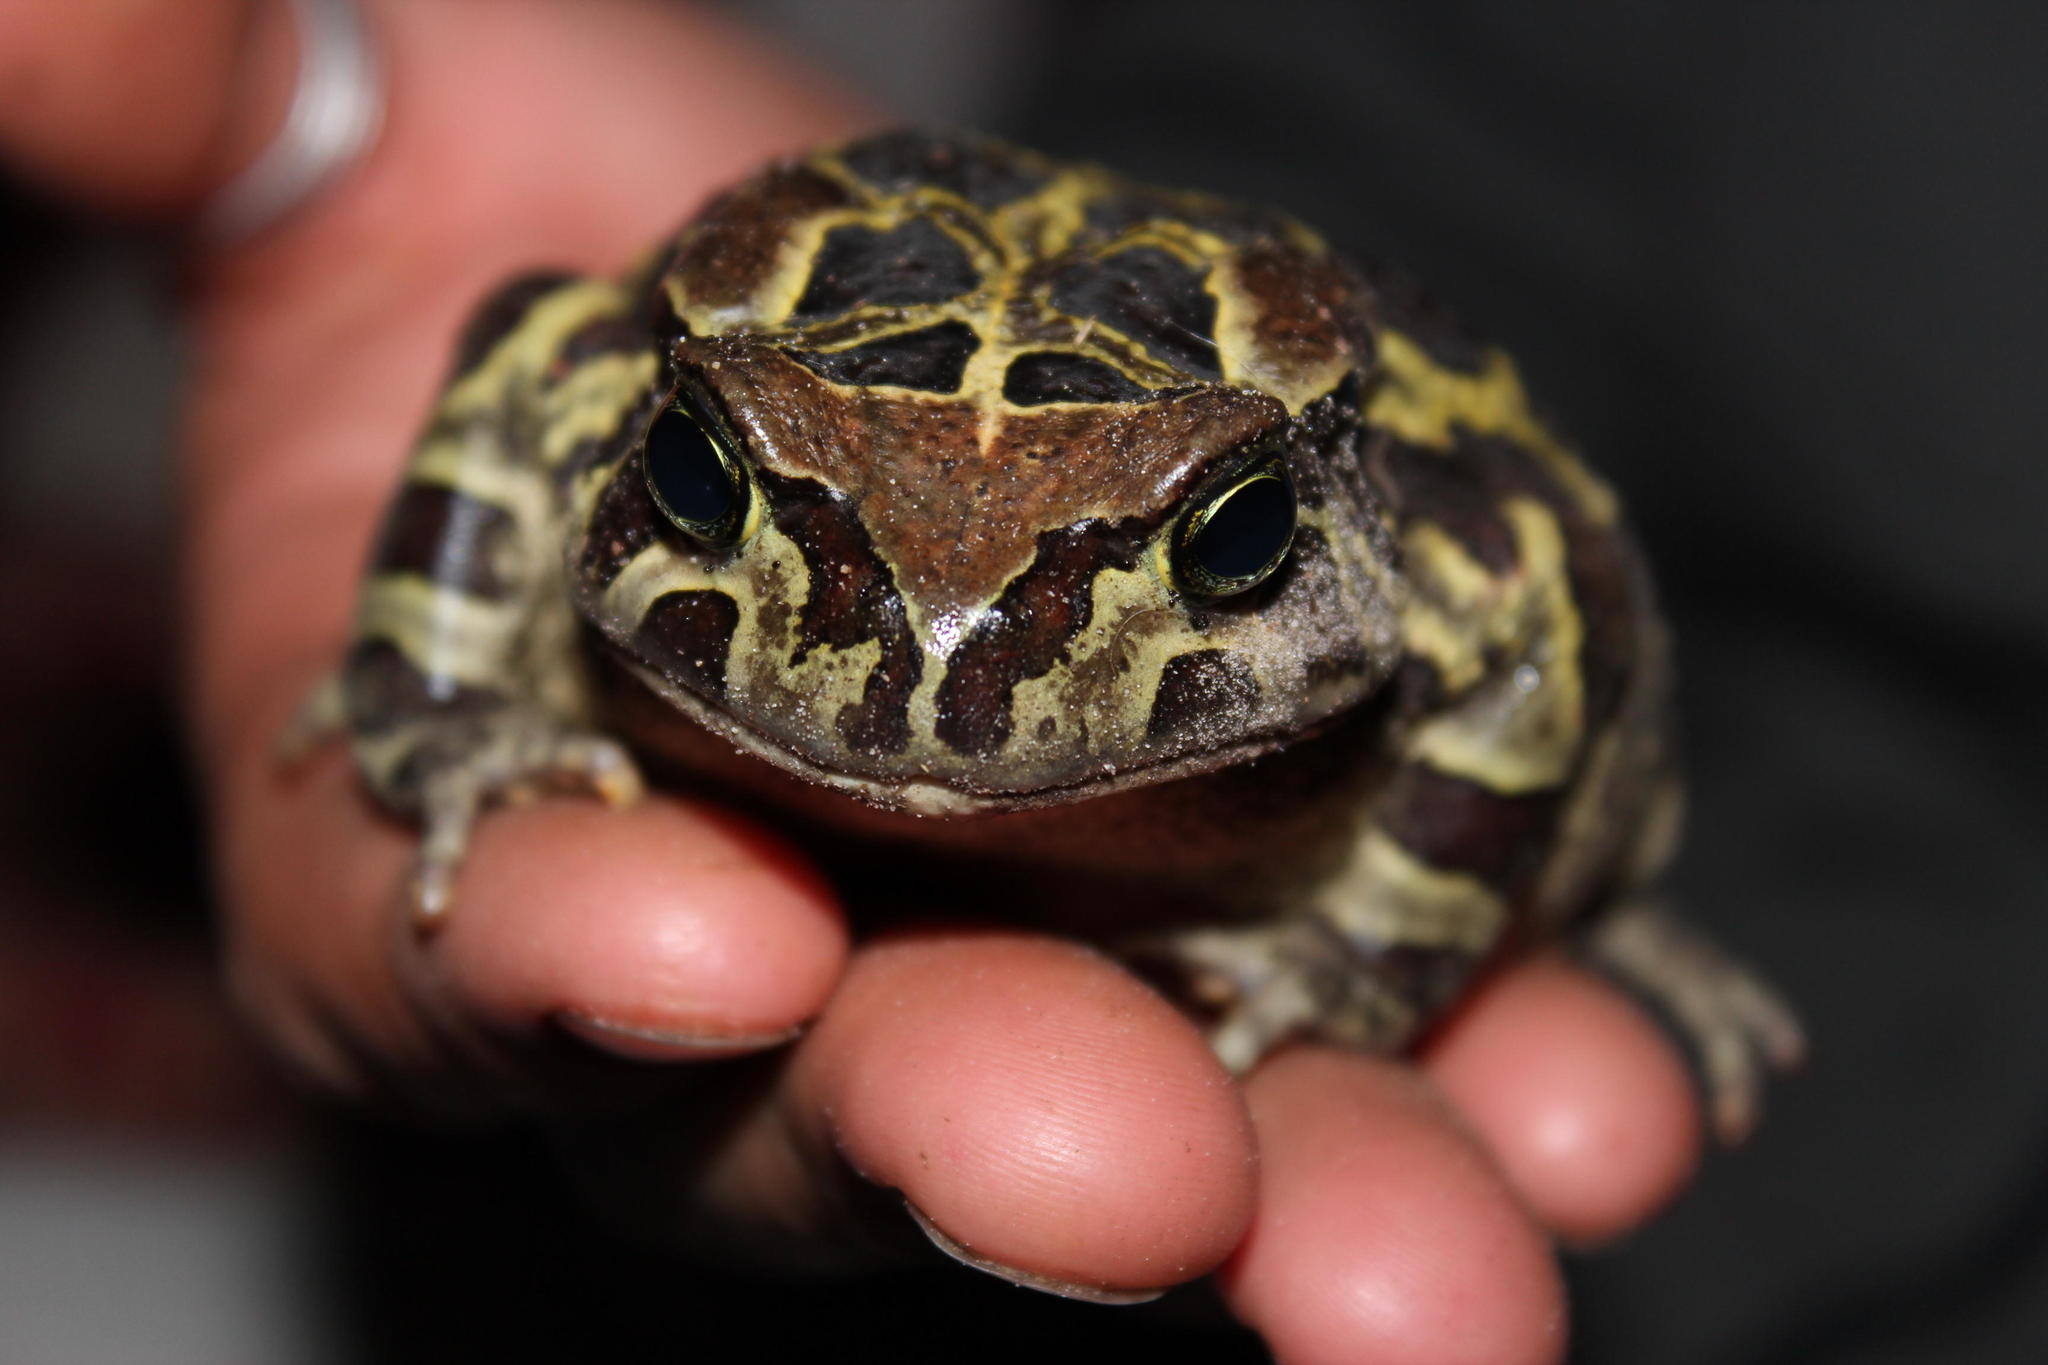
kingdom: Animalia
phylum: Chordata
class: Amphibia
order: Anura
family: Bufonidae
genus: Sclerophrys
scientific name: Sclerophrys pantherina
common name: Panther toad
